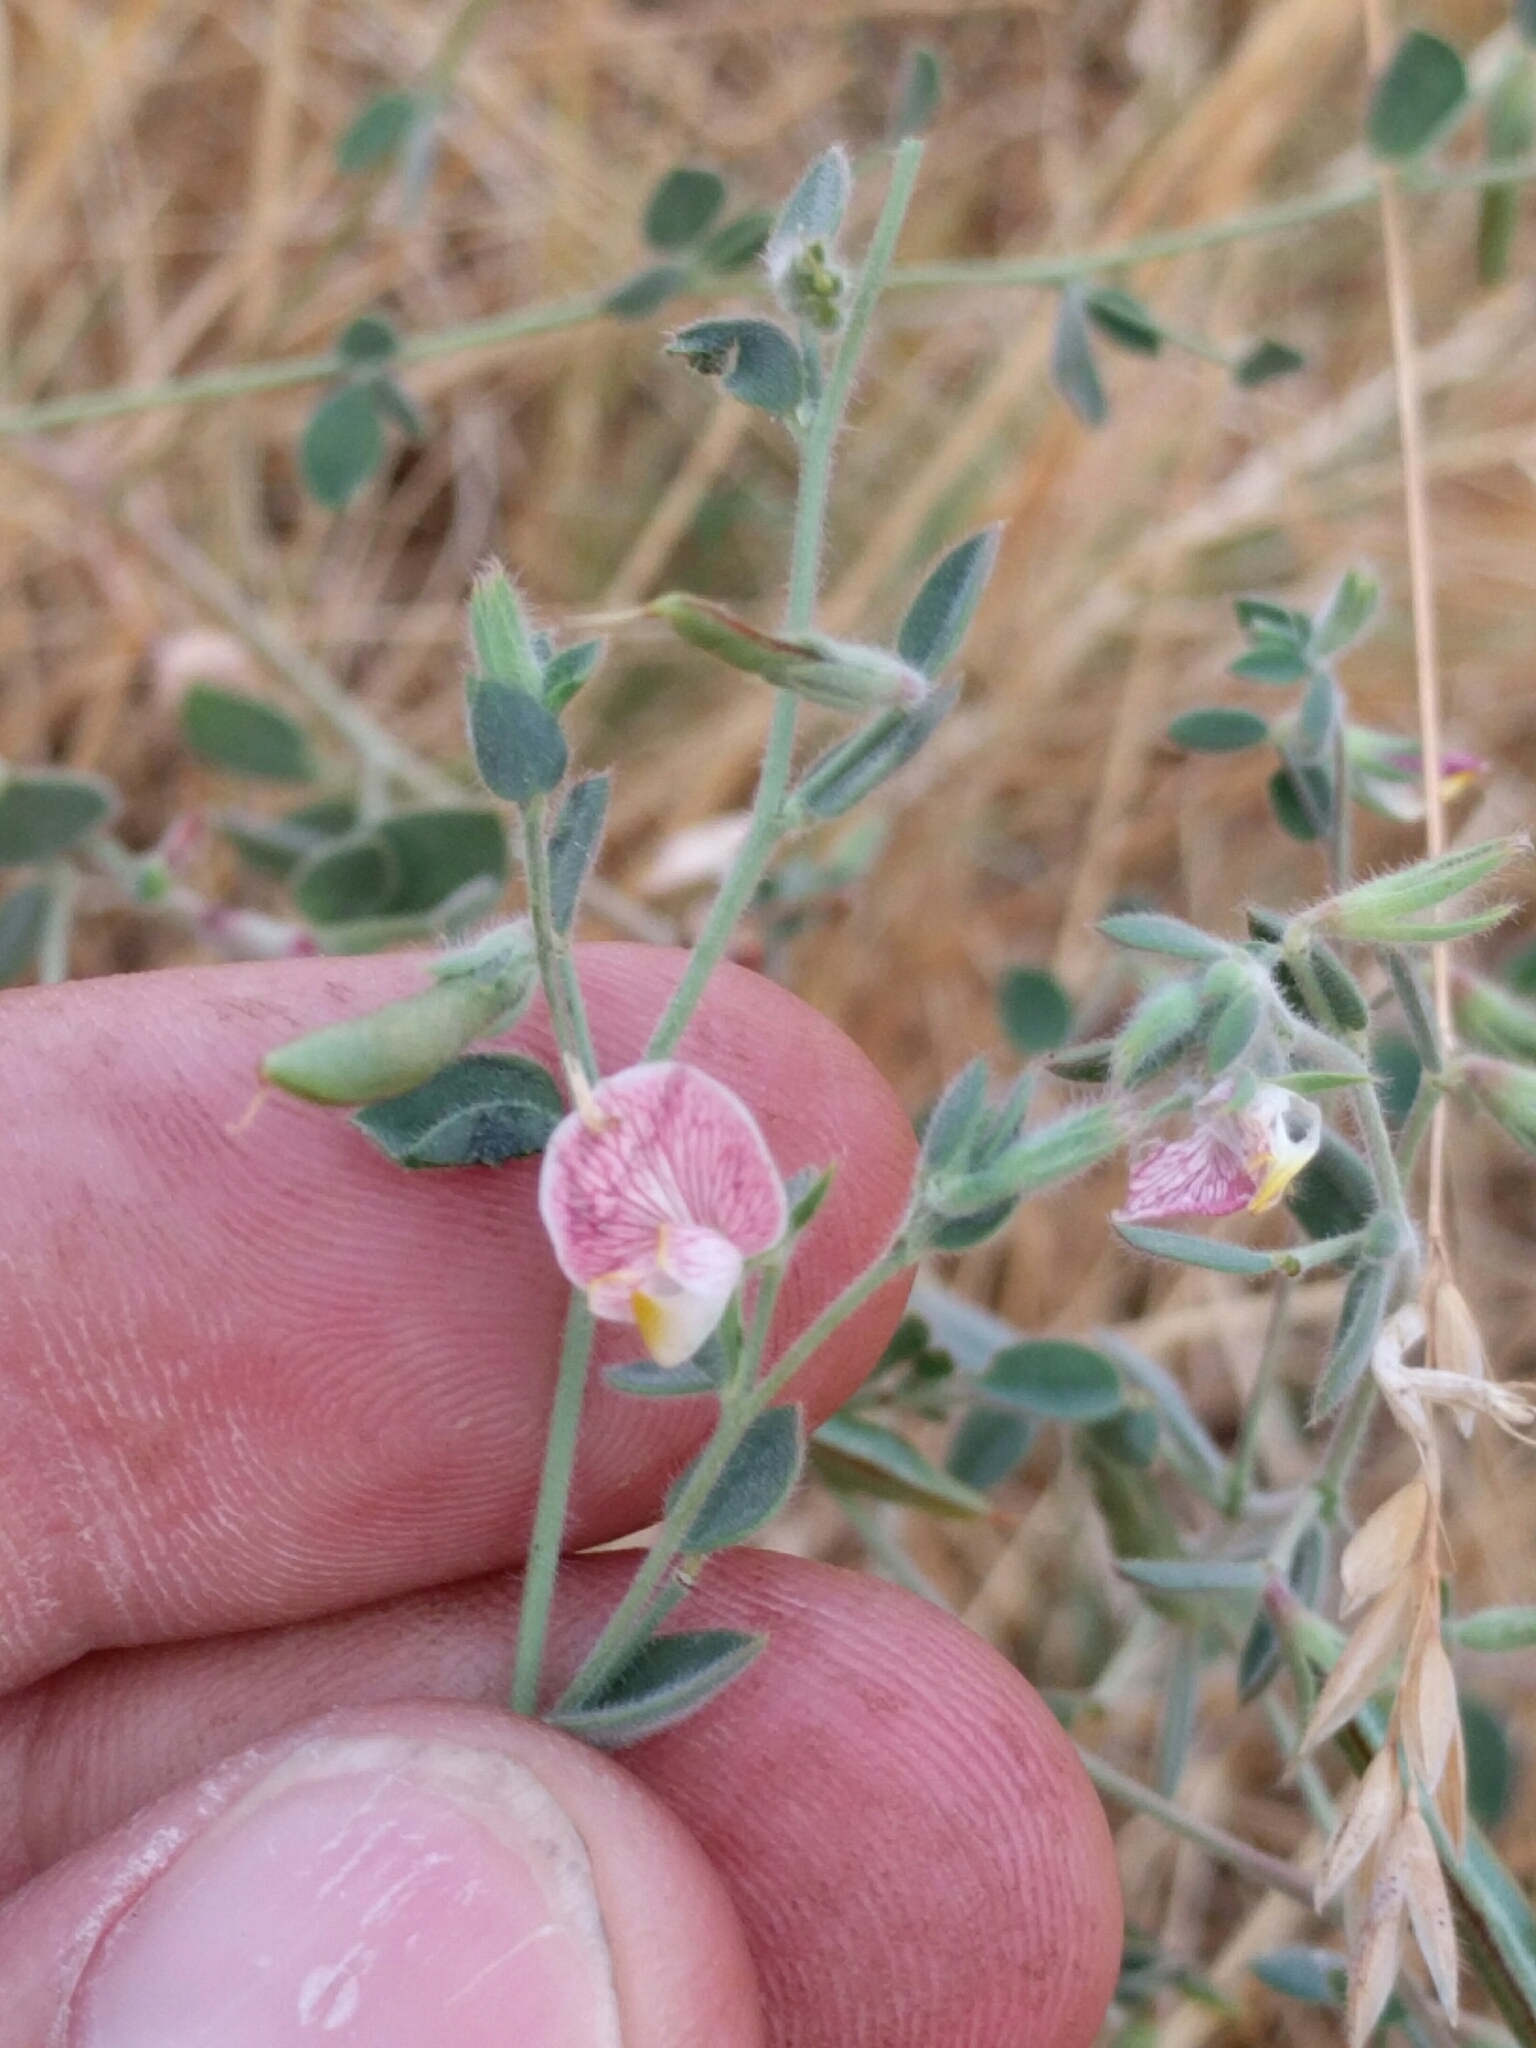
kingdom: Plantae
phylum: Tracheophyta
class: Magnoliopsida
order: Fabales
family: Fabaceae
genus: Acmispon
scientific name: Acmispon americanus
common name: American bird's-foot trefoil
